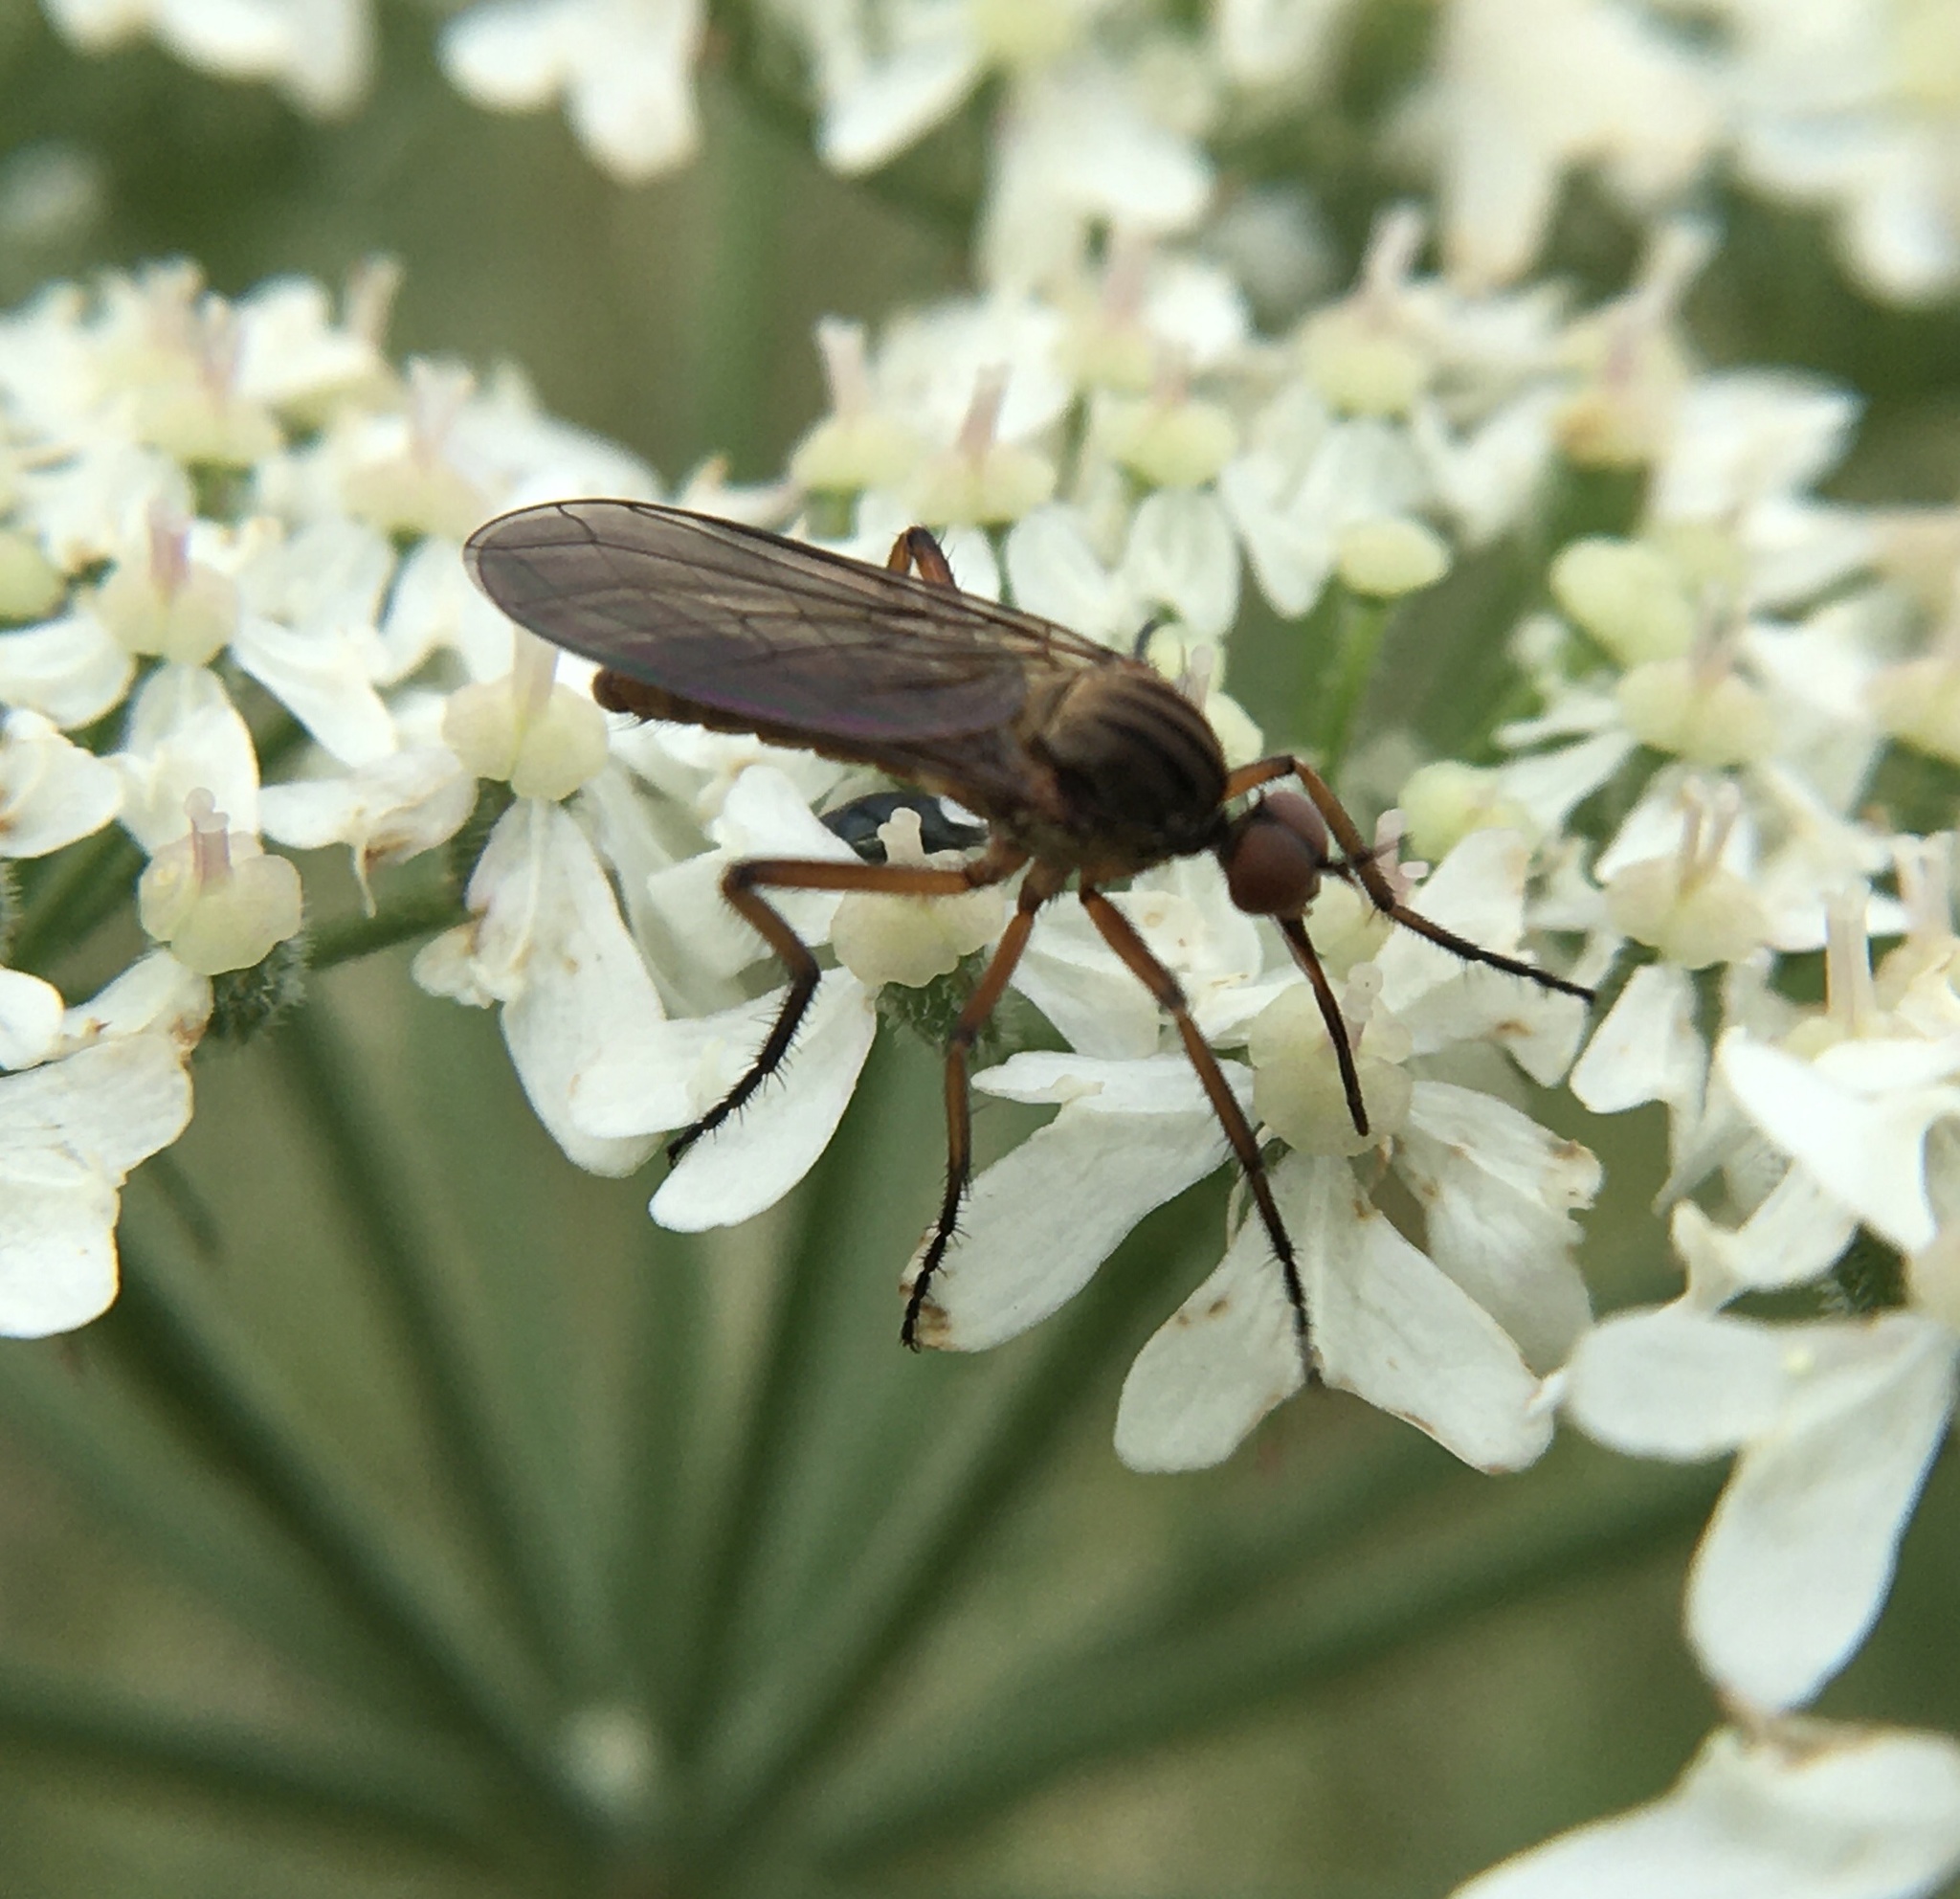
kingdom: Animalia
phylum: Arthropoda
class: Insecta
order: Diptera
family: Empididae
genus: Empis
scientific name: Empis livida
